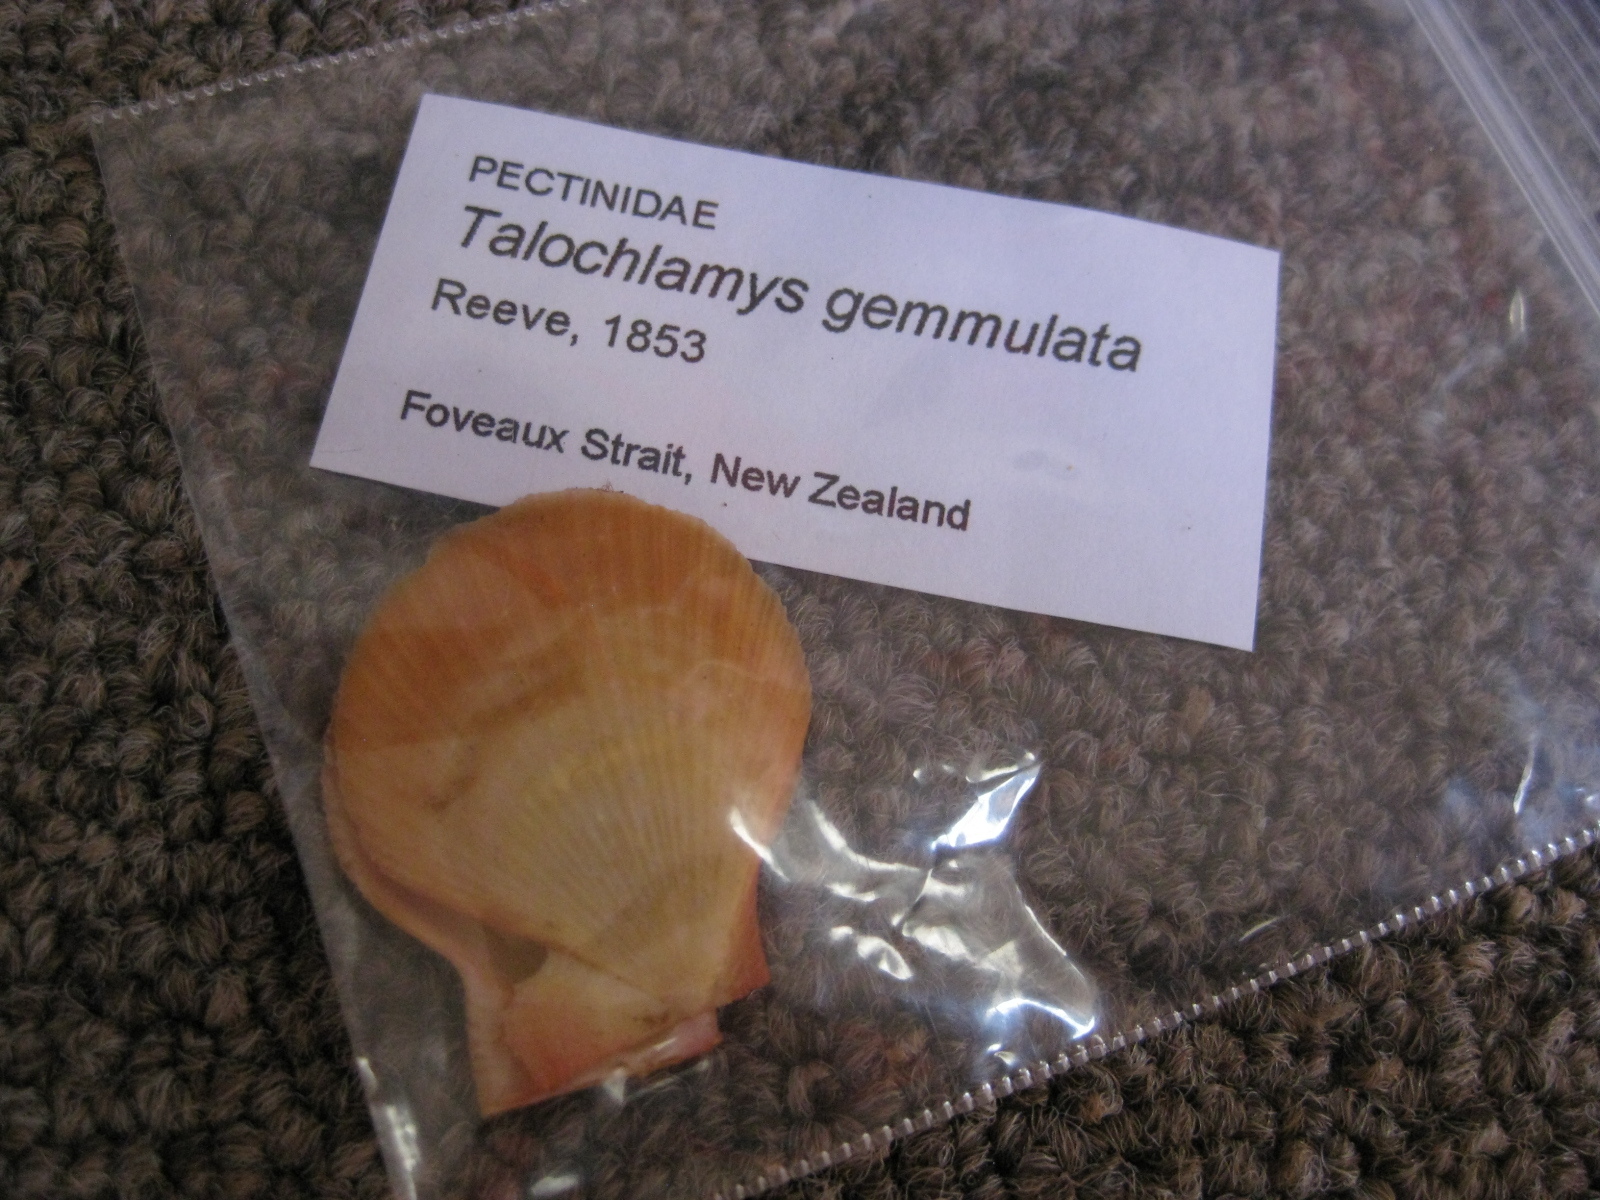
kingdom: Animalia
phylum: Mollusca
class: Bivalvia
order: Pectinida
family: Pectinidae
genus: Talochlamys
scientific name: Talochlamys gemmulata
